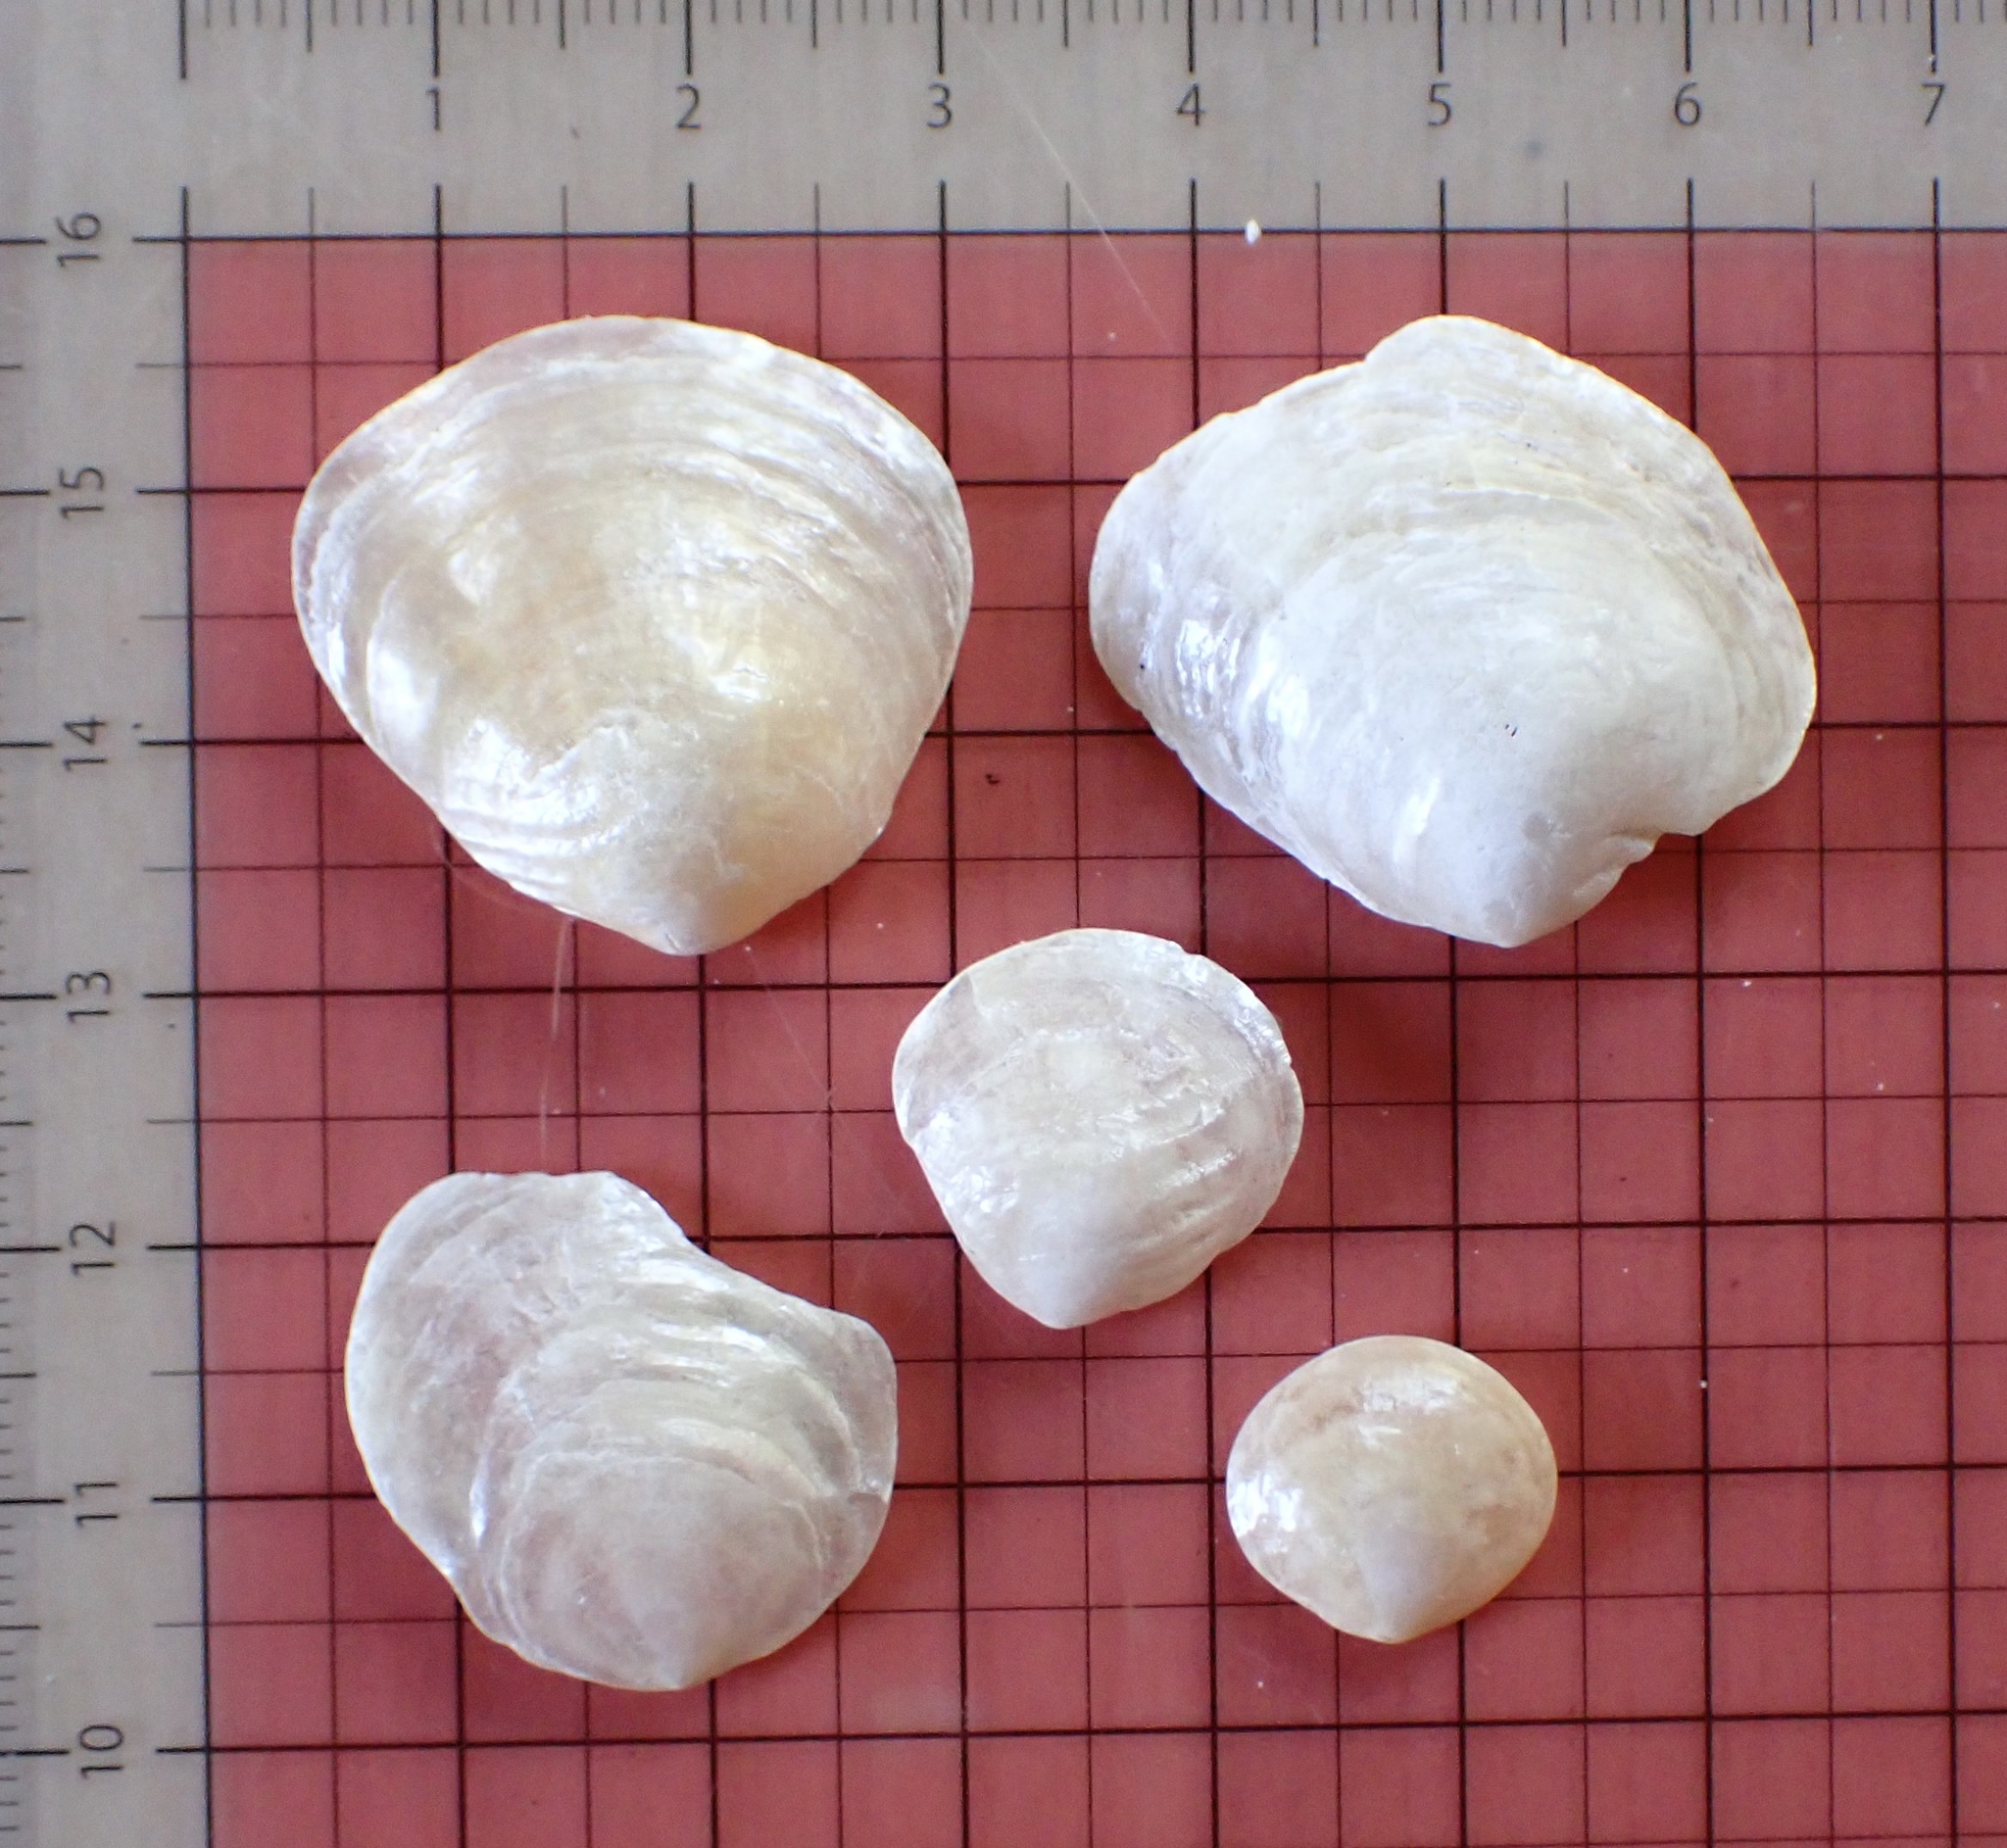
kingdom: Animalia
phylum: Mollusca
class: Bivalvia
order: Pectinida
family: Anomiidae
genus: Anomia
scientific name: Anomia simplex
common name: Common jingle shell
